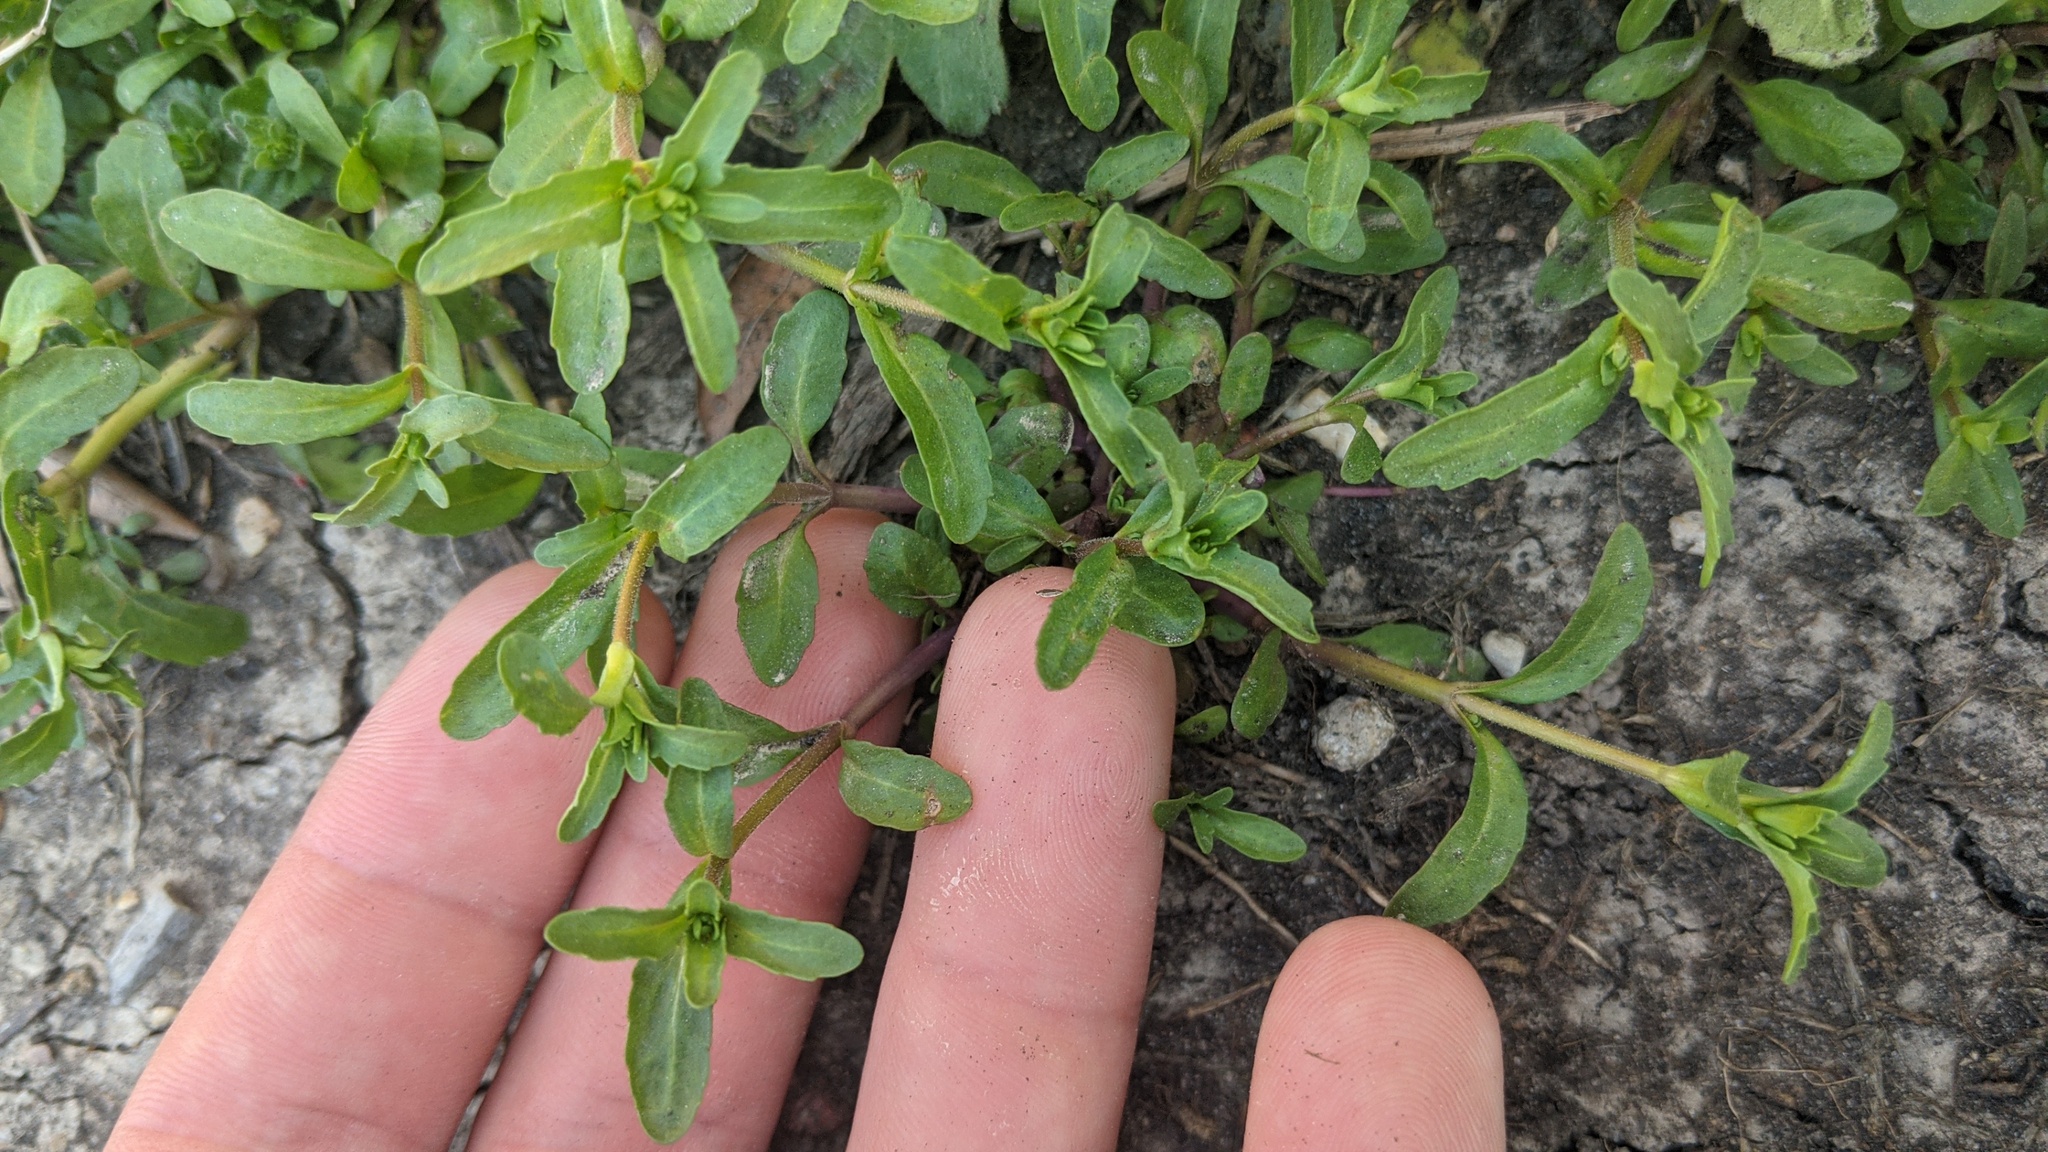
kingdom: Plantae
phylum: Tracheophyta
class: Magnoliopsida
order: Lamiales
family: Plantaginaceae
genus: Veronica
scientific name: Veronica peregrina
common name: Neckweed
